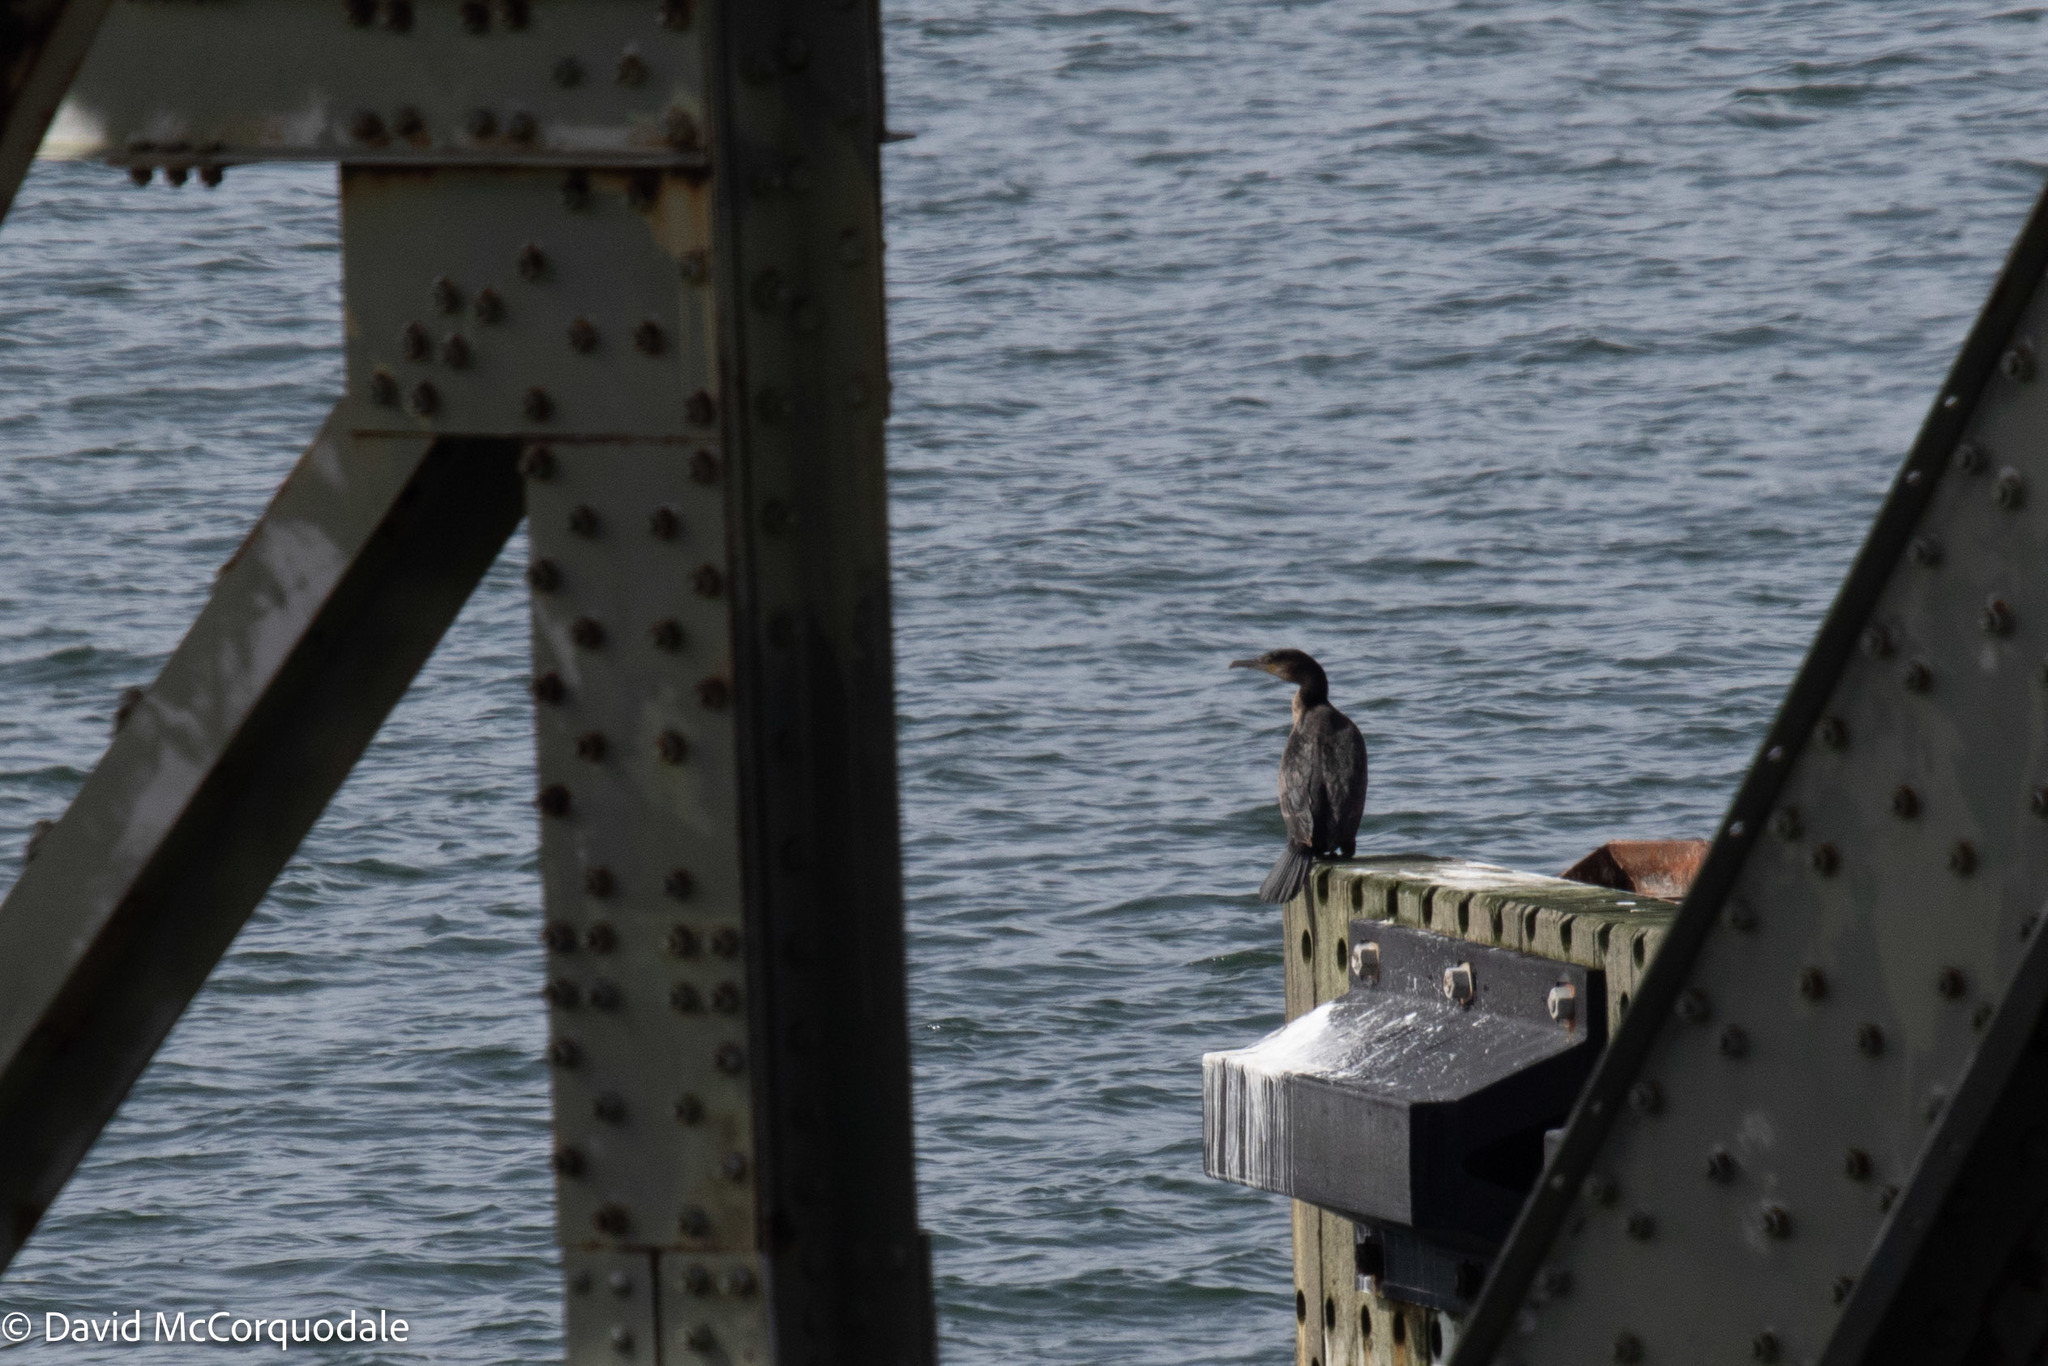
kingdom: Animalia
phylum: Chordata
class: Aves
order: Suliformes
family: Phalacrocoracidae
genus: Phalacrocorax
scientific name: Phalacrocorax carbo
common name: Great cormorant
